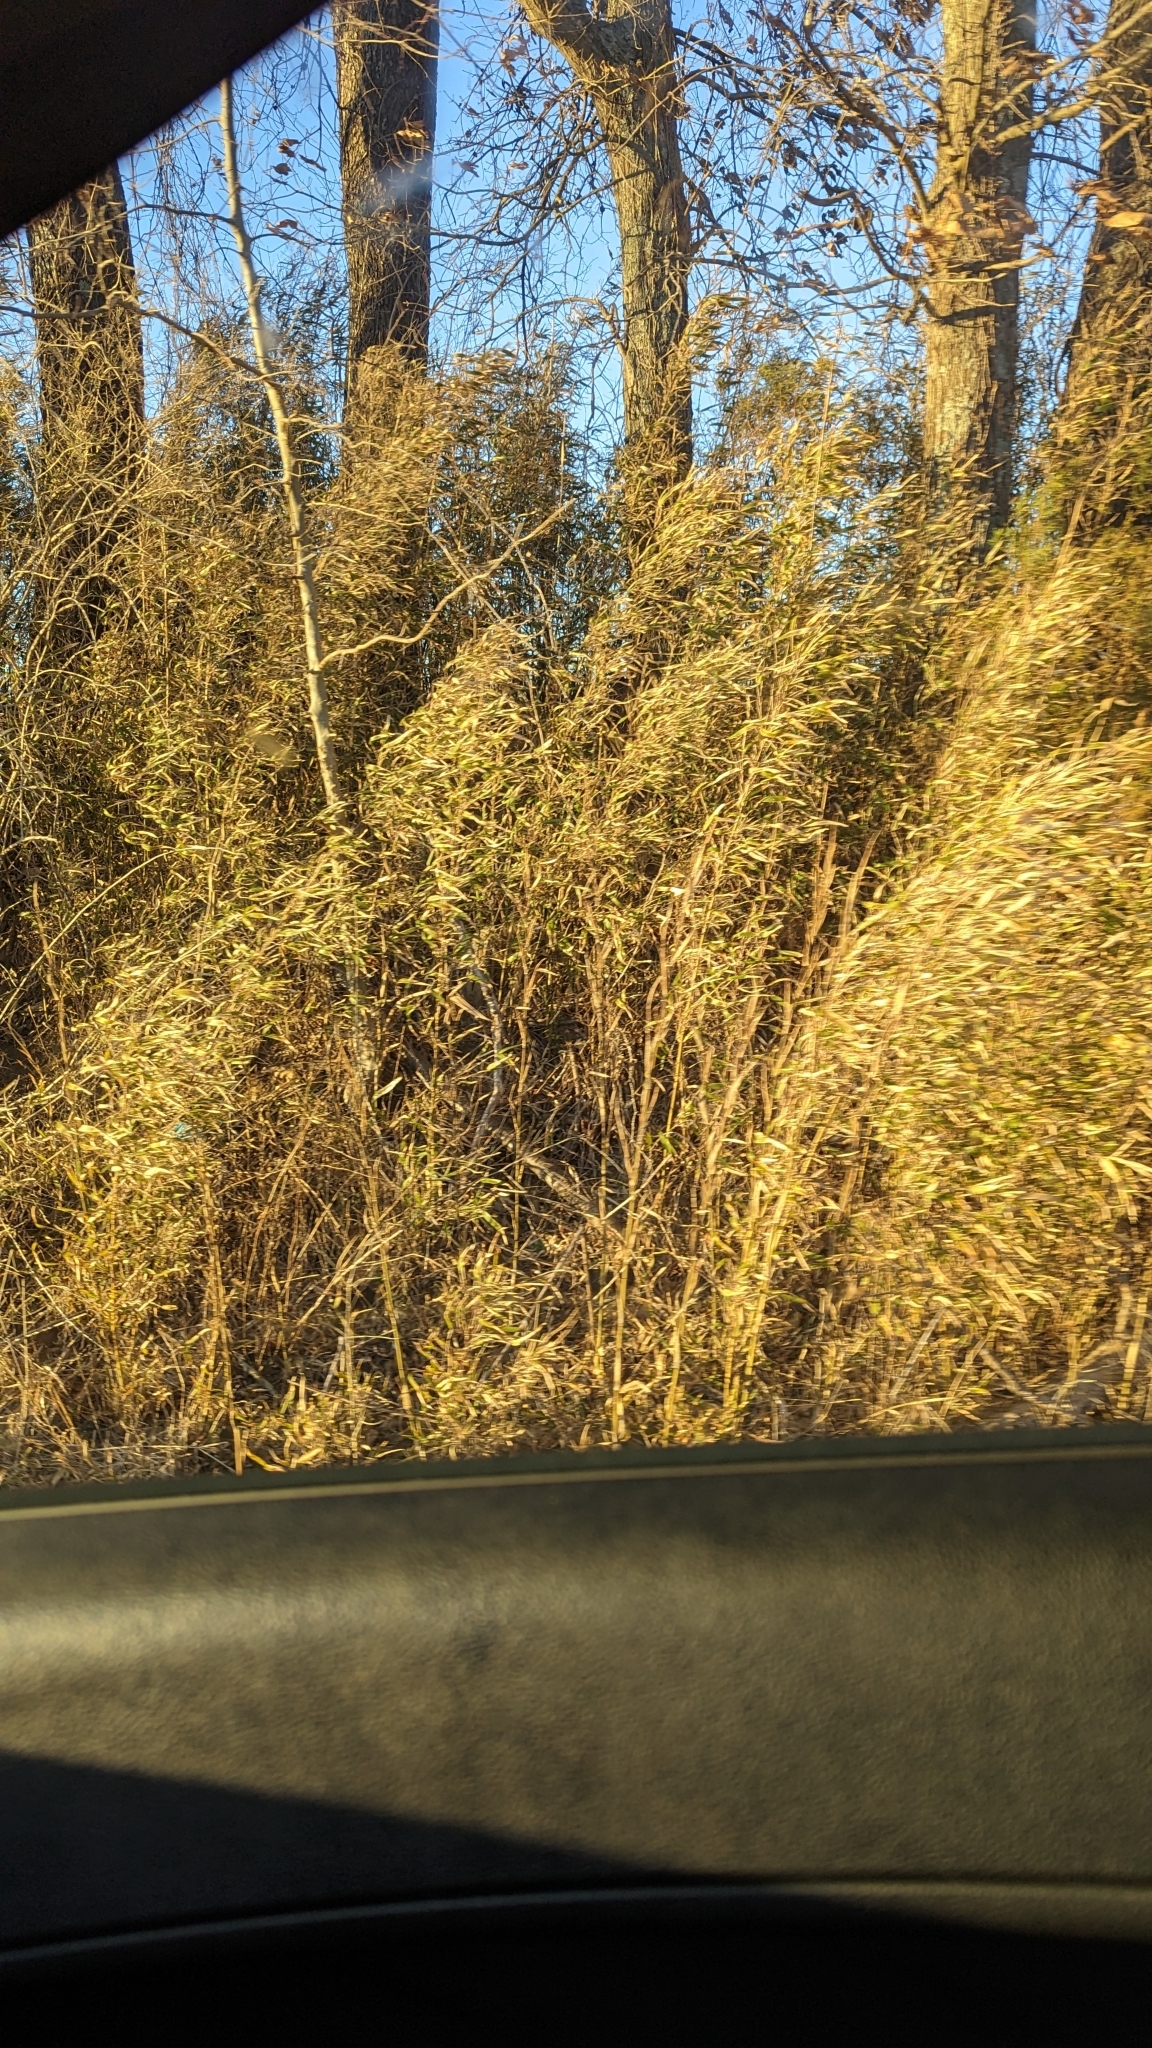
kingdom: Plantae
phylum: Tracheophyta
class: Liliopsida
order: Poales
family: Poaceae
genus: Arundinaria
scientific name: Arundinaria gigantea
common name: Giant cane
